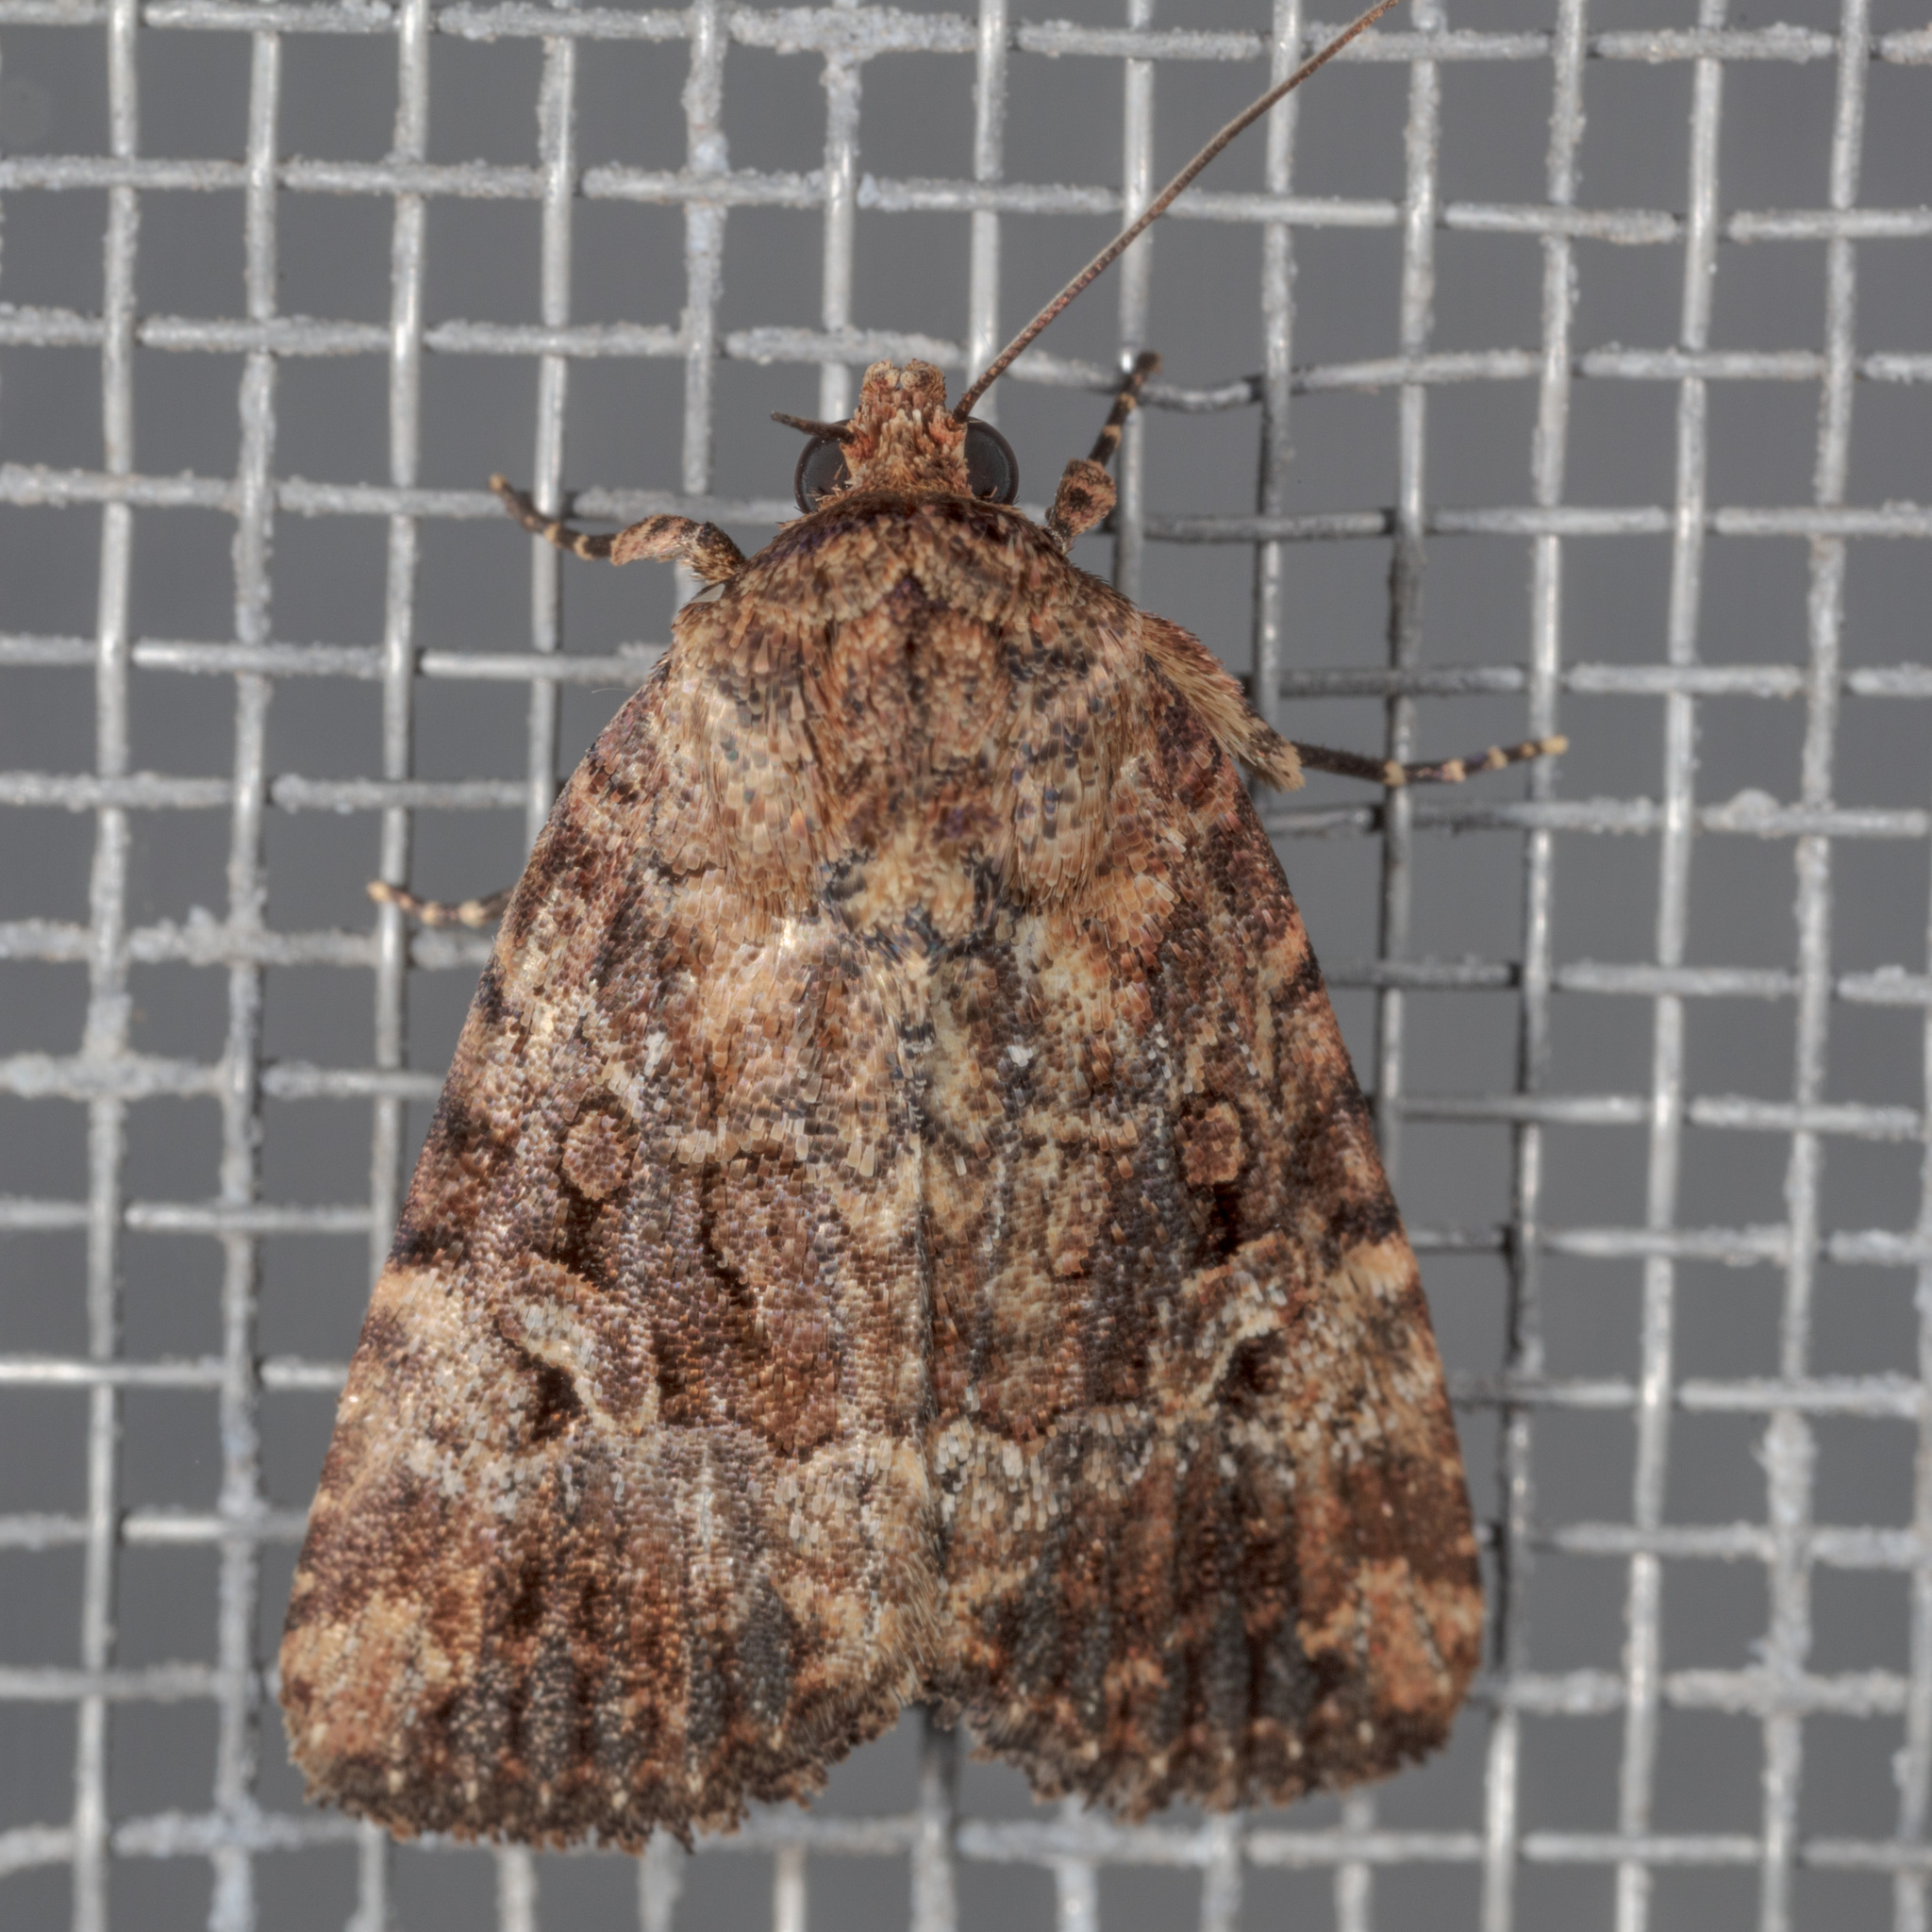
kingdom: Animalia
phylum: Arthropoda
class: Insecta
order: Lepidoptera
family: Noctuidae
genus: Elaphria
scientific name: Elaphria exesa
